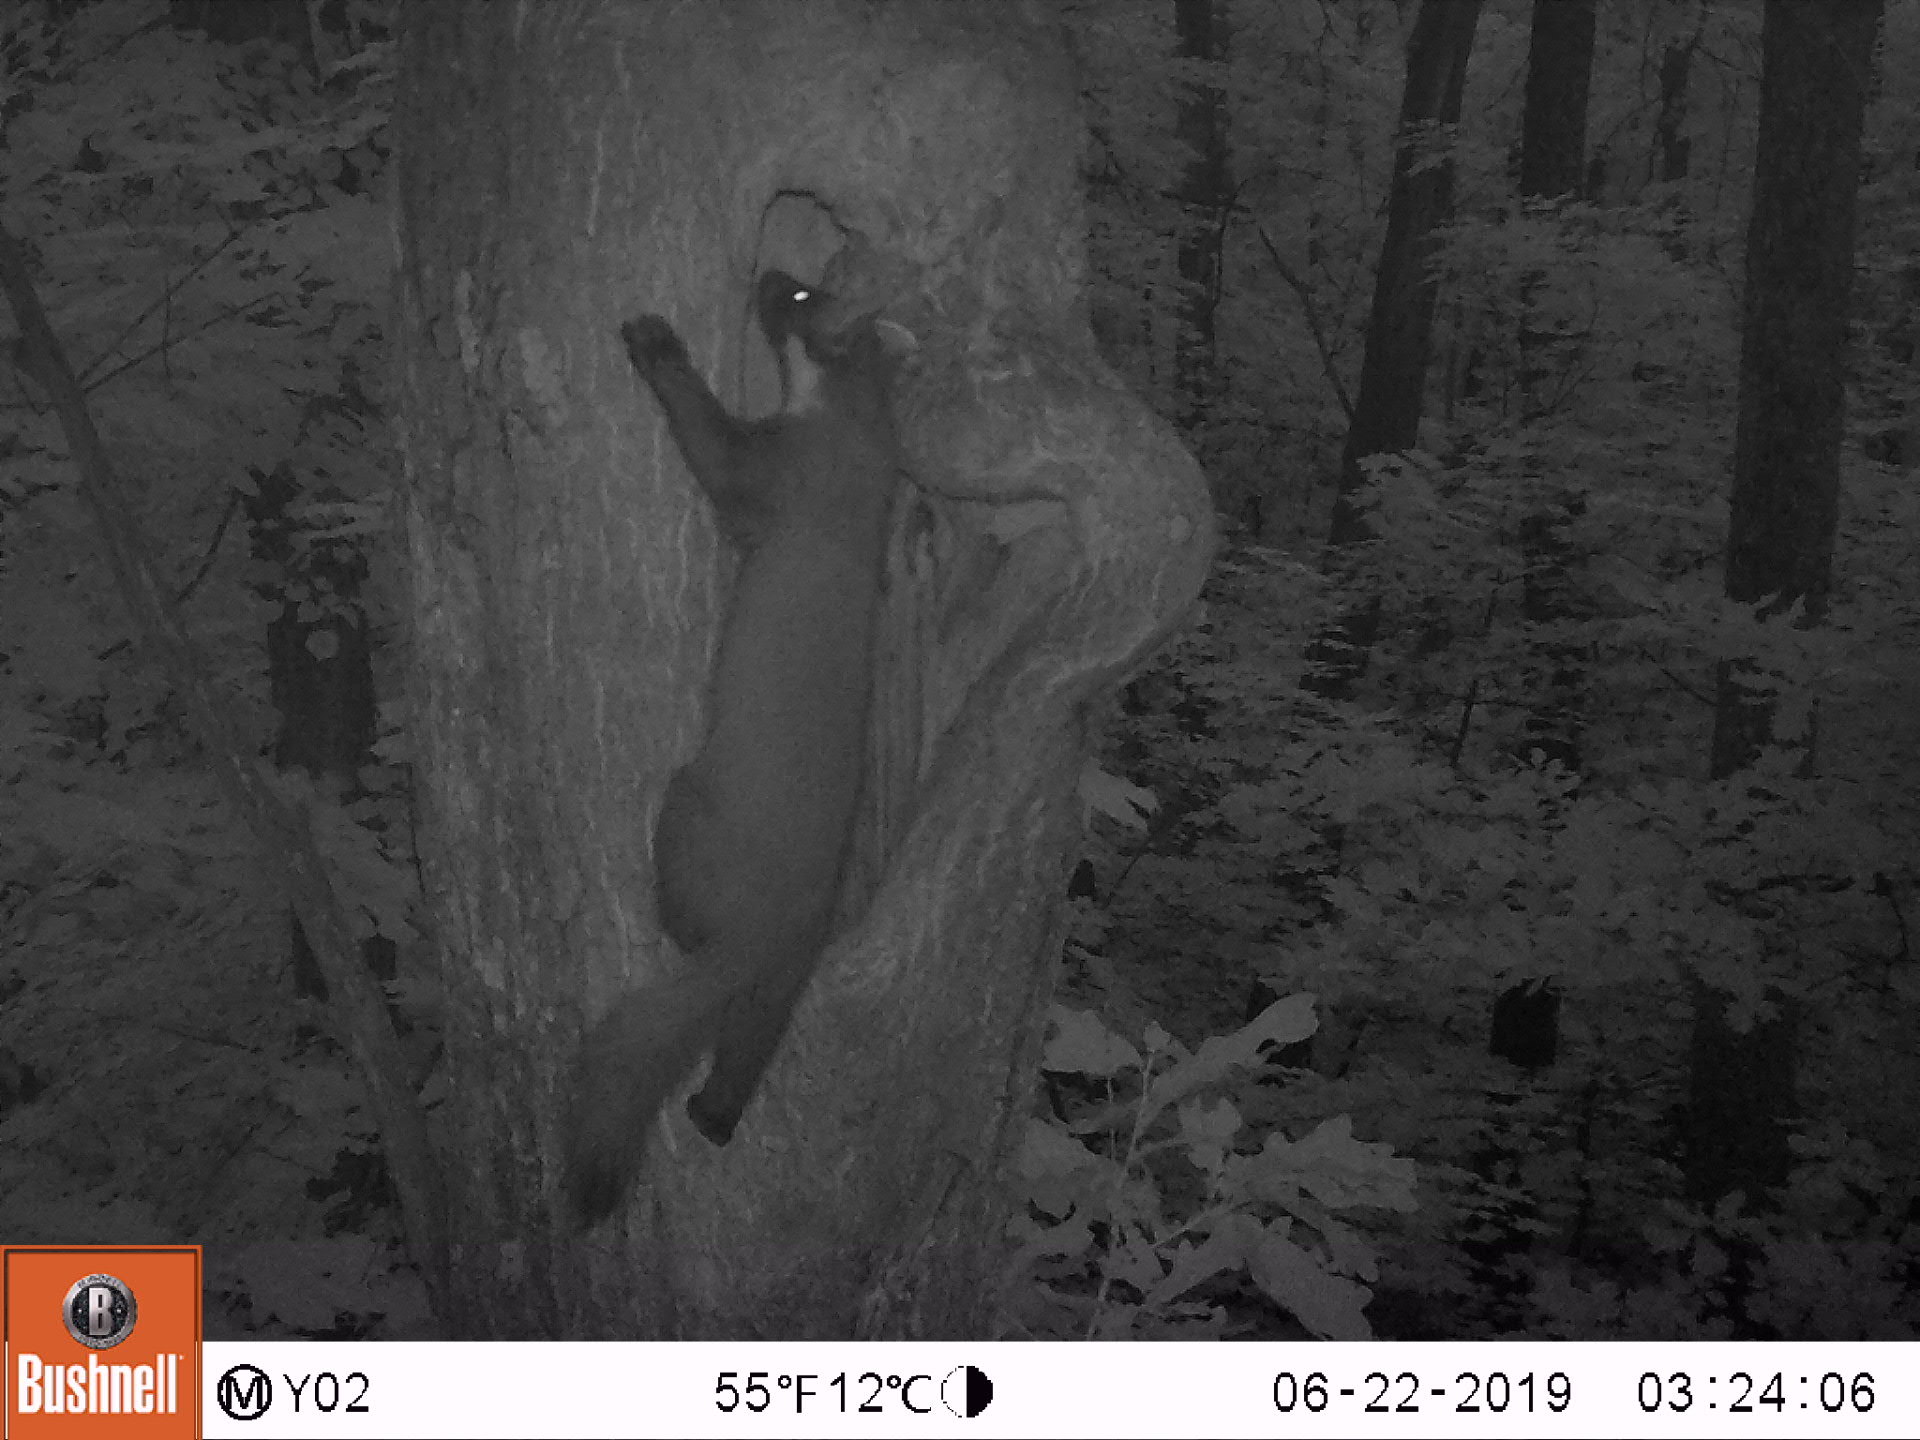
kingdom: Animalia
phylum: Chordata
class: Mammalia
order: Carnivora
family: Mustelidae
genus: Martes
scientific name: Martes martes
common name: European pine marten
